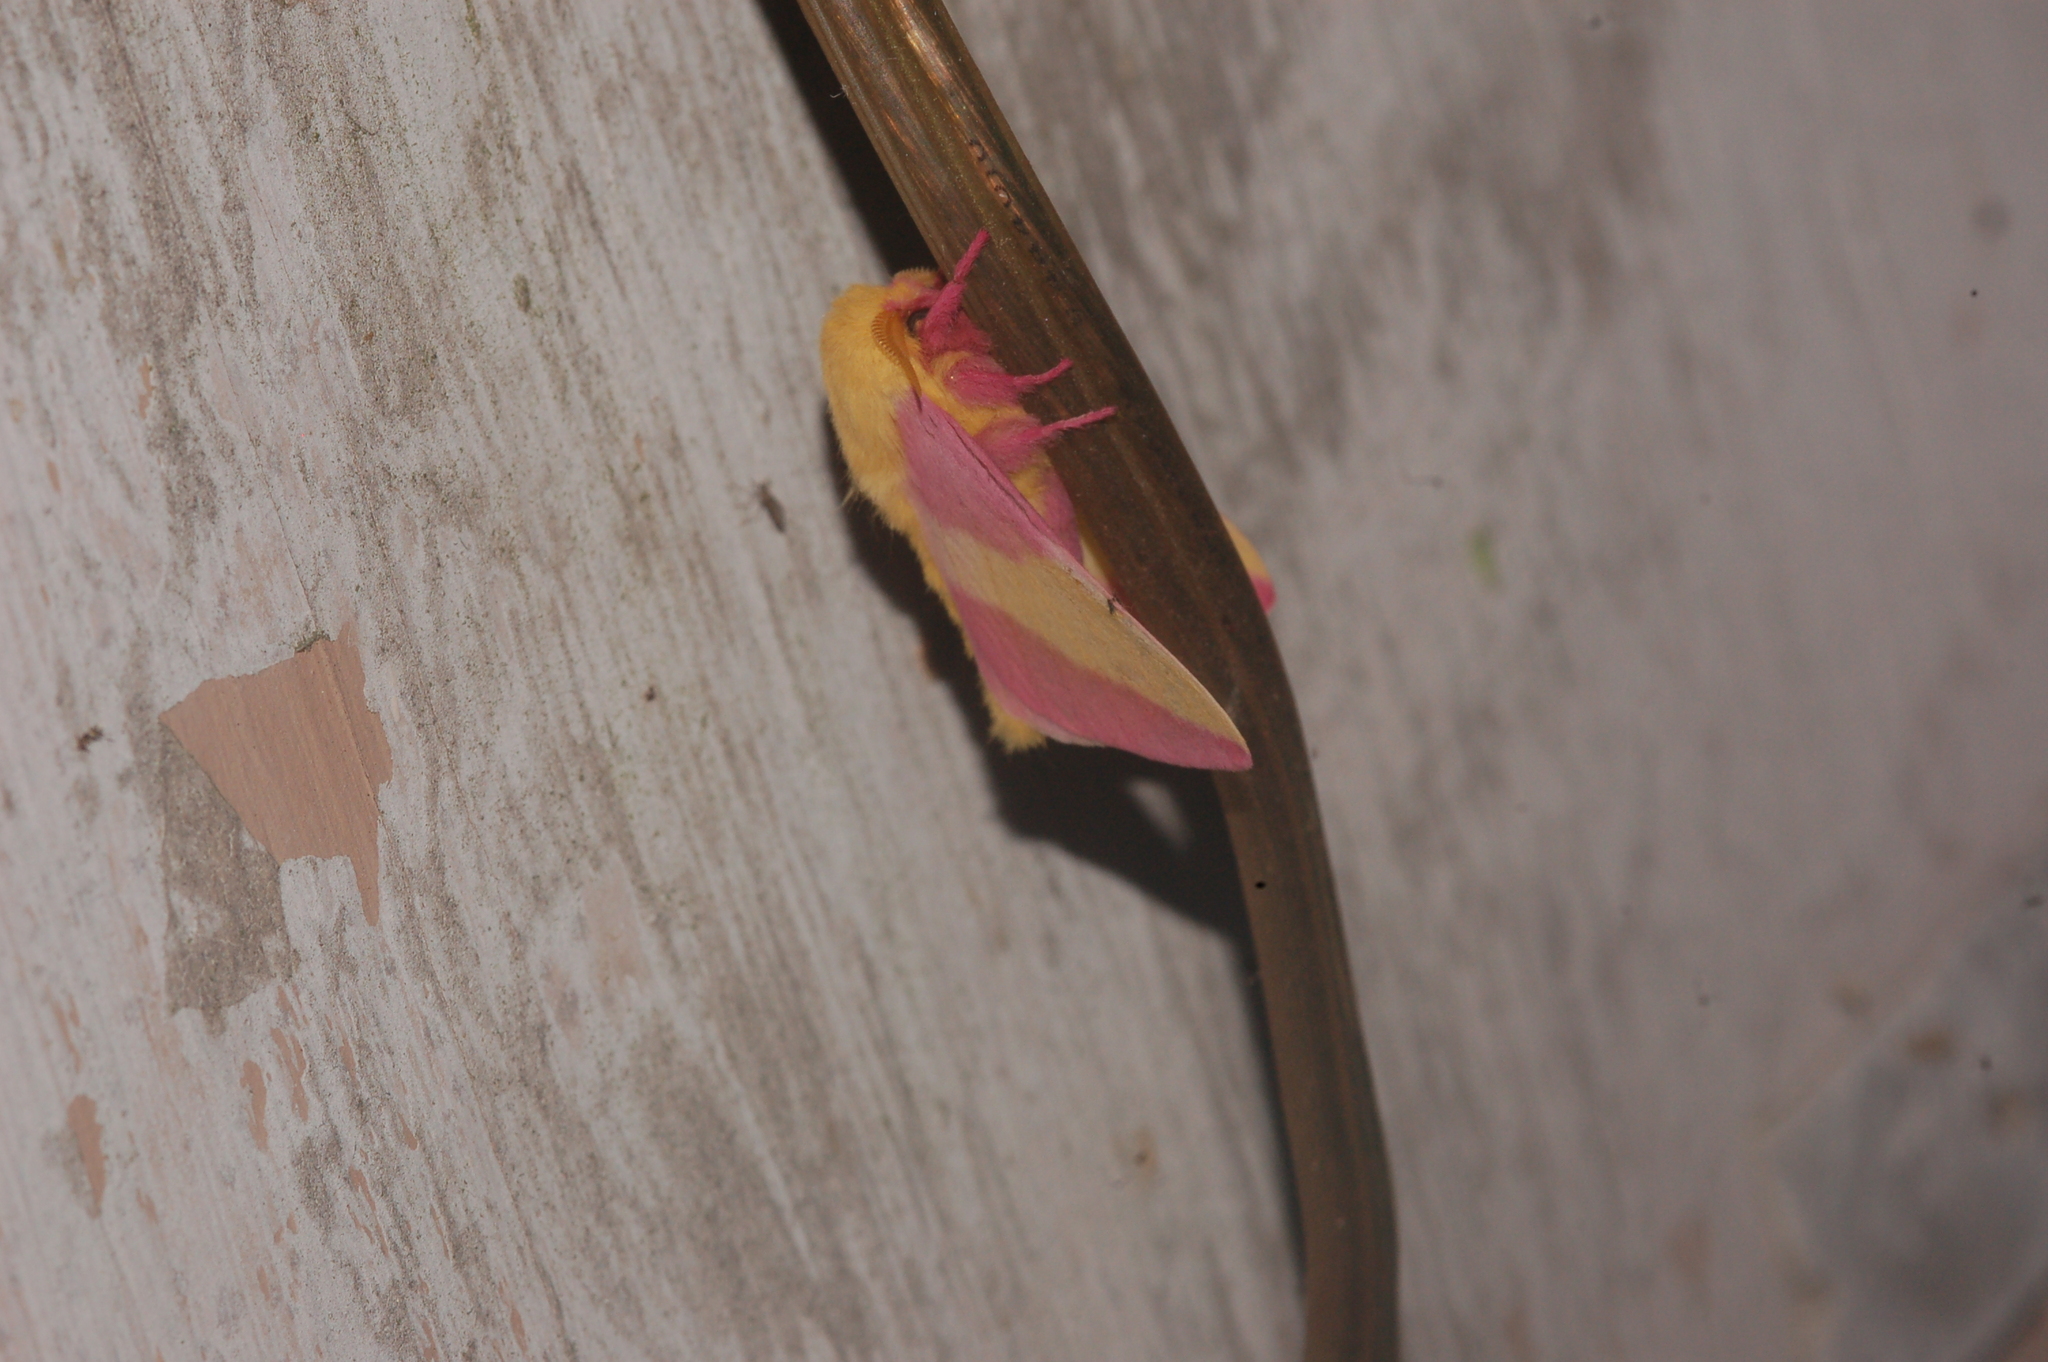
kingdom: Animalia
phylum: Arthropoda
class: Insecta
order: Lepidoptera
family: Saturniidae
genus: Dryocampa
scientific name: Dryocampa rubicunda
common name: Rosy maple moth
